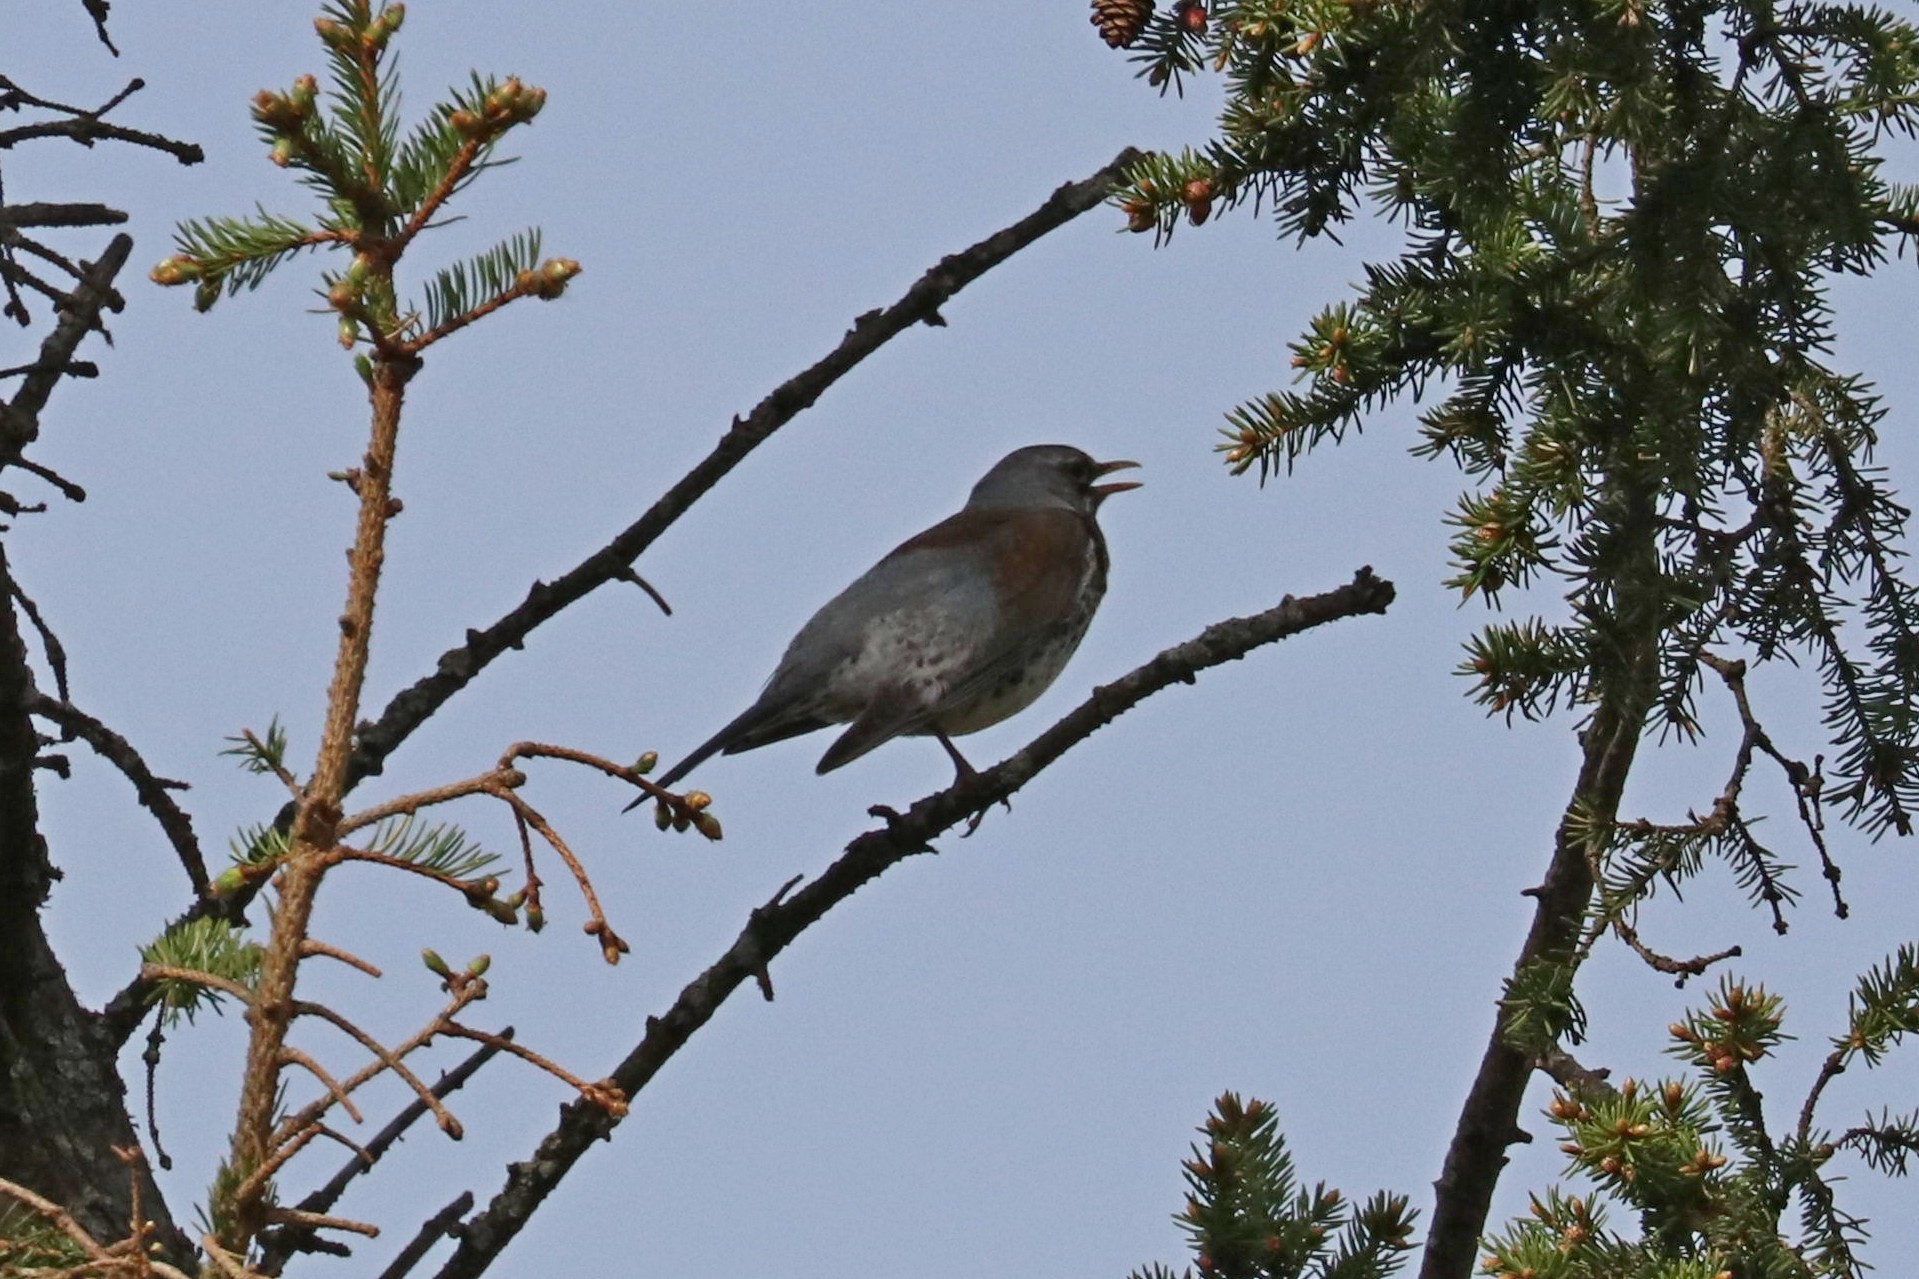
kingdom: Animalia
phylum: Chordata
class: Aves
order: Passeriformes
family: Turdidae
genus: Turdus
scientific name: Turdus pilaris
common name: Fieldfare
